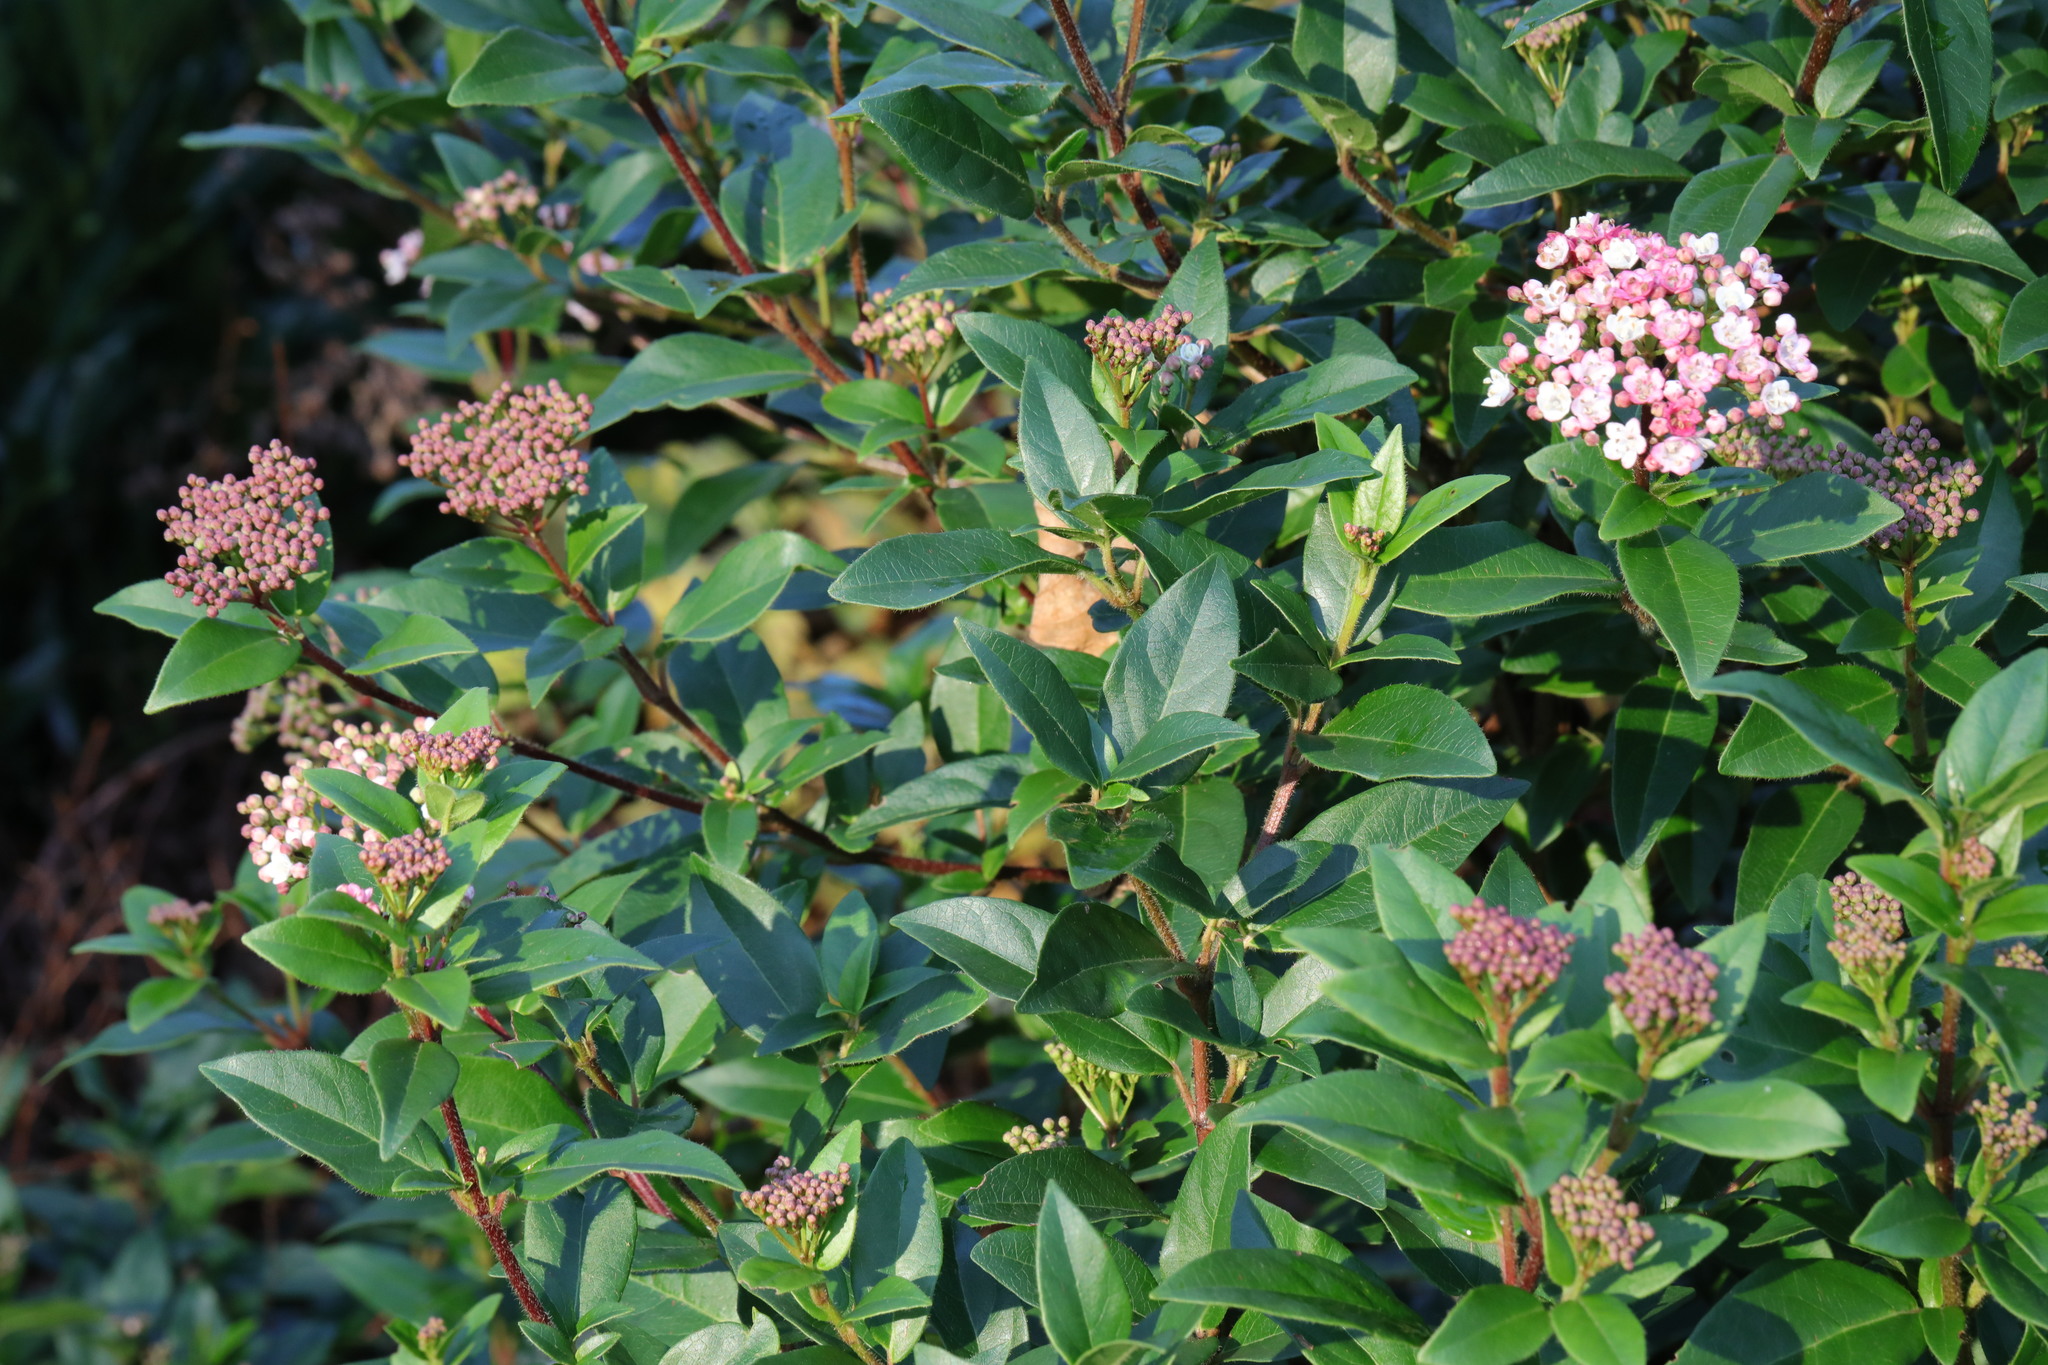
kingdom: Plantae
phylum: Tracheophyta
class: Magnoliopsida
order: Dipsacales
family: Viburnaceae
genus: Viburnum
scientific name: Viburnum tinus
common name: Laurustinus
